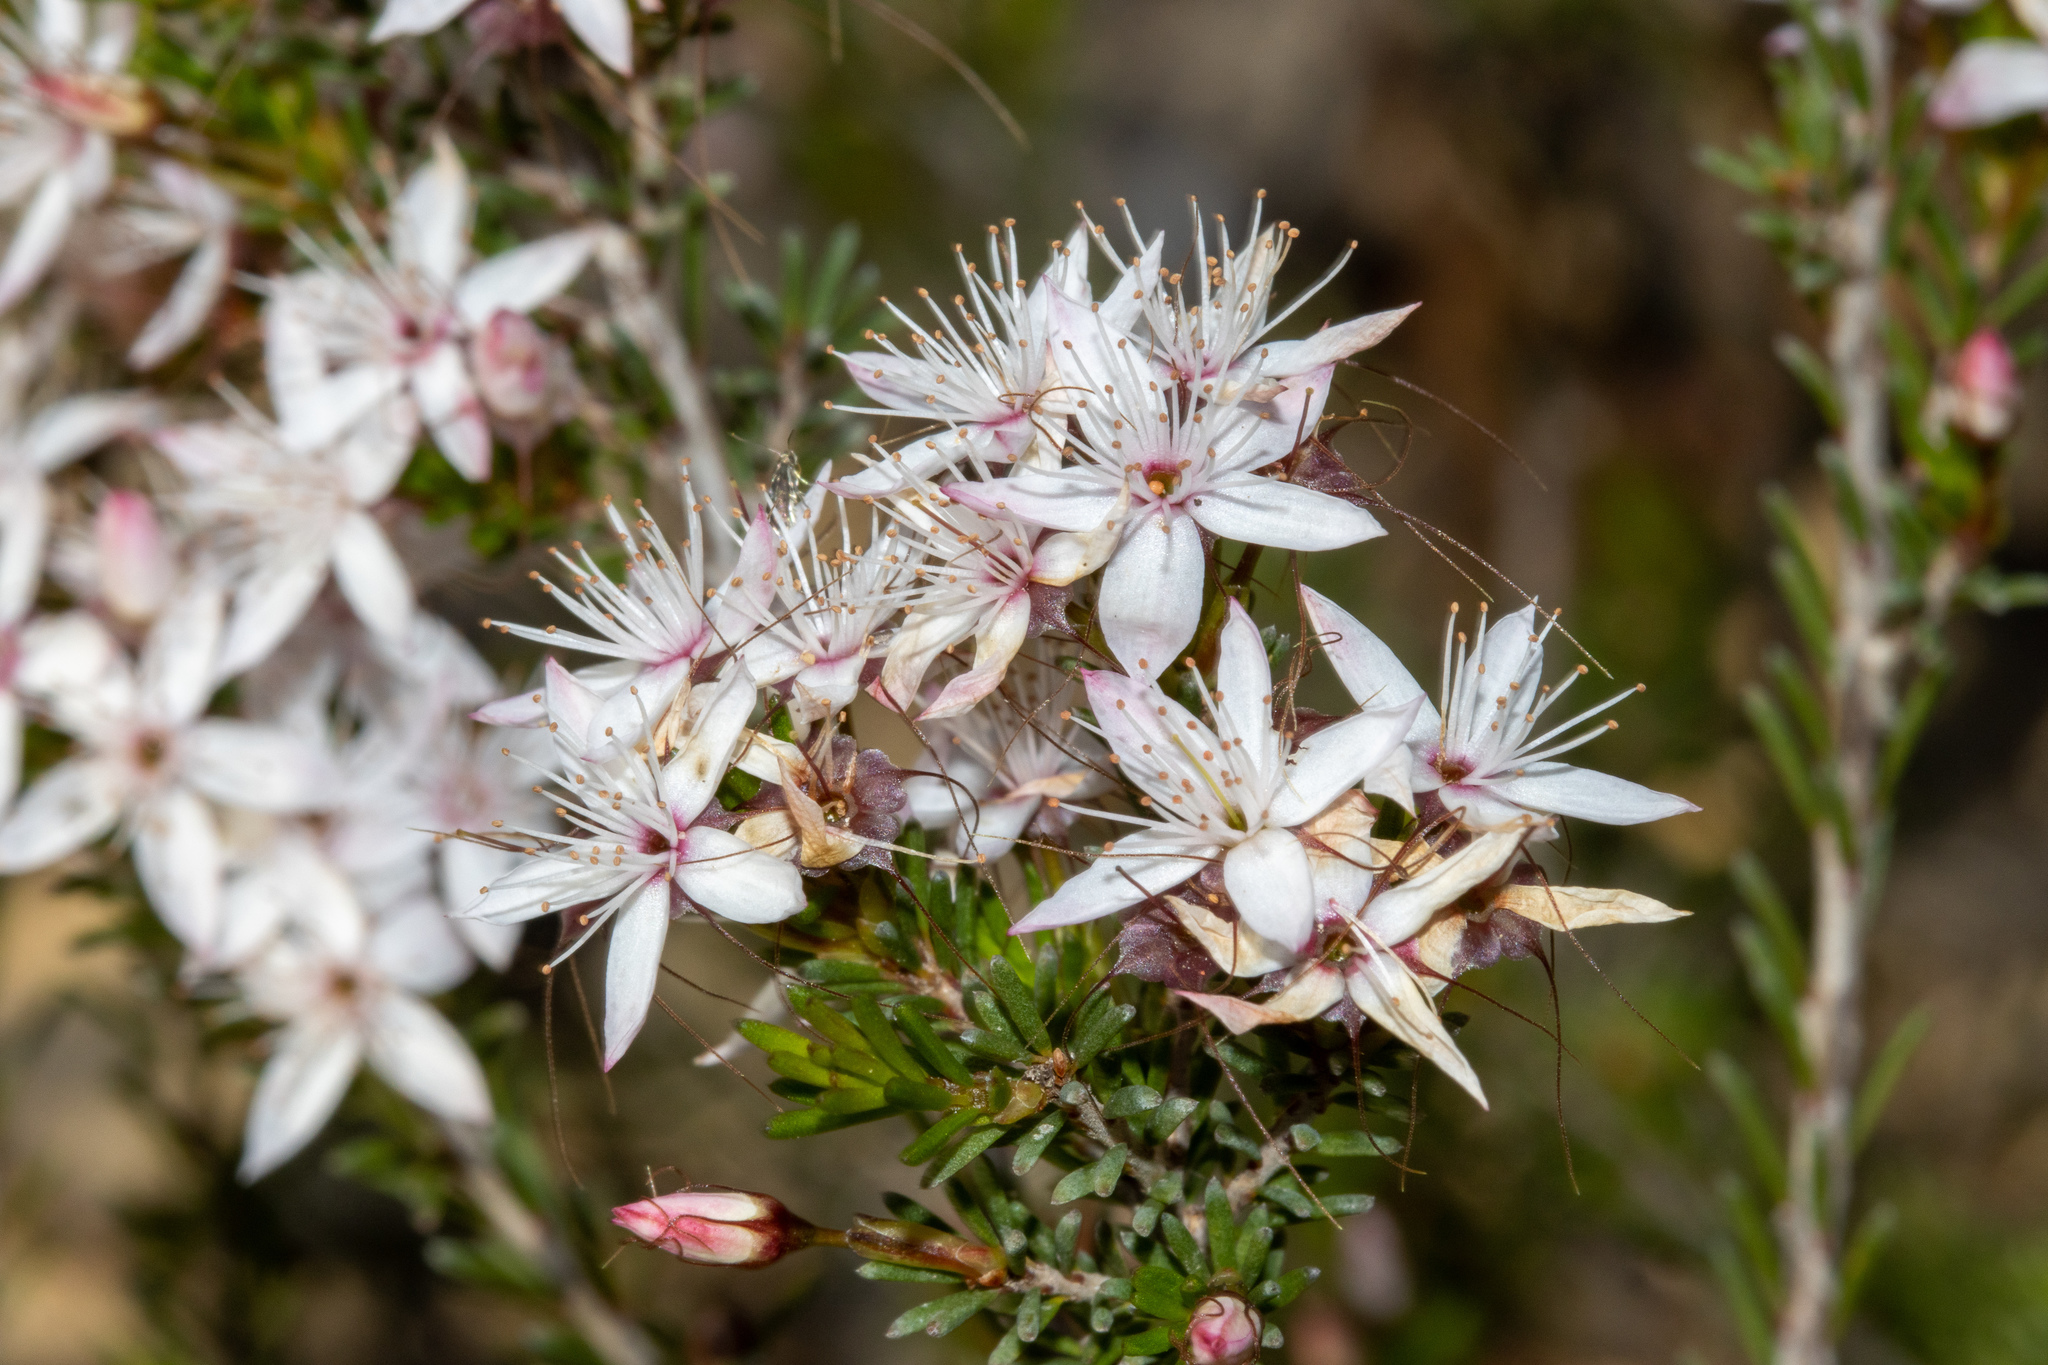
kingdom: Plantae
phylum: Tracheophyta
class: Magnoliopsida
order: Myrtales
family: Myrtaceae
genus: Calytrix
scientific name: Calytrix tetragona
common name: Common fringe myrtle
